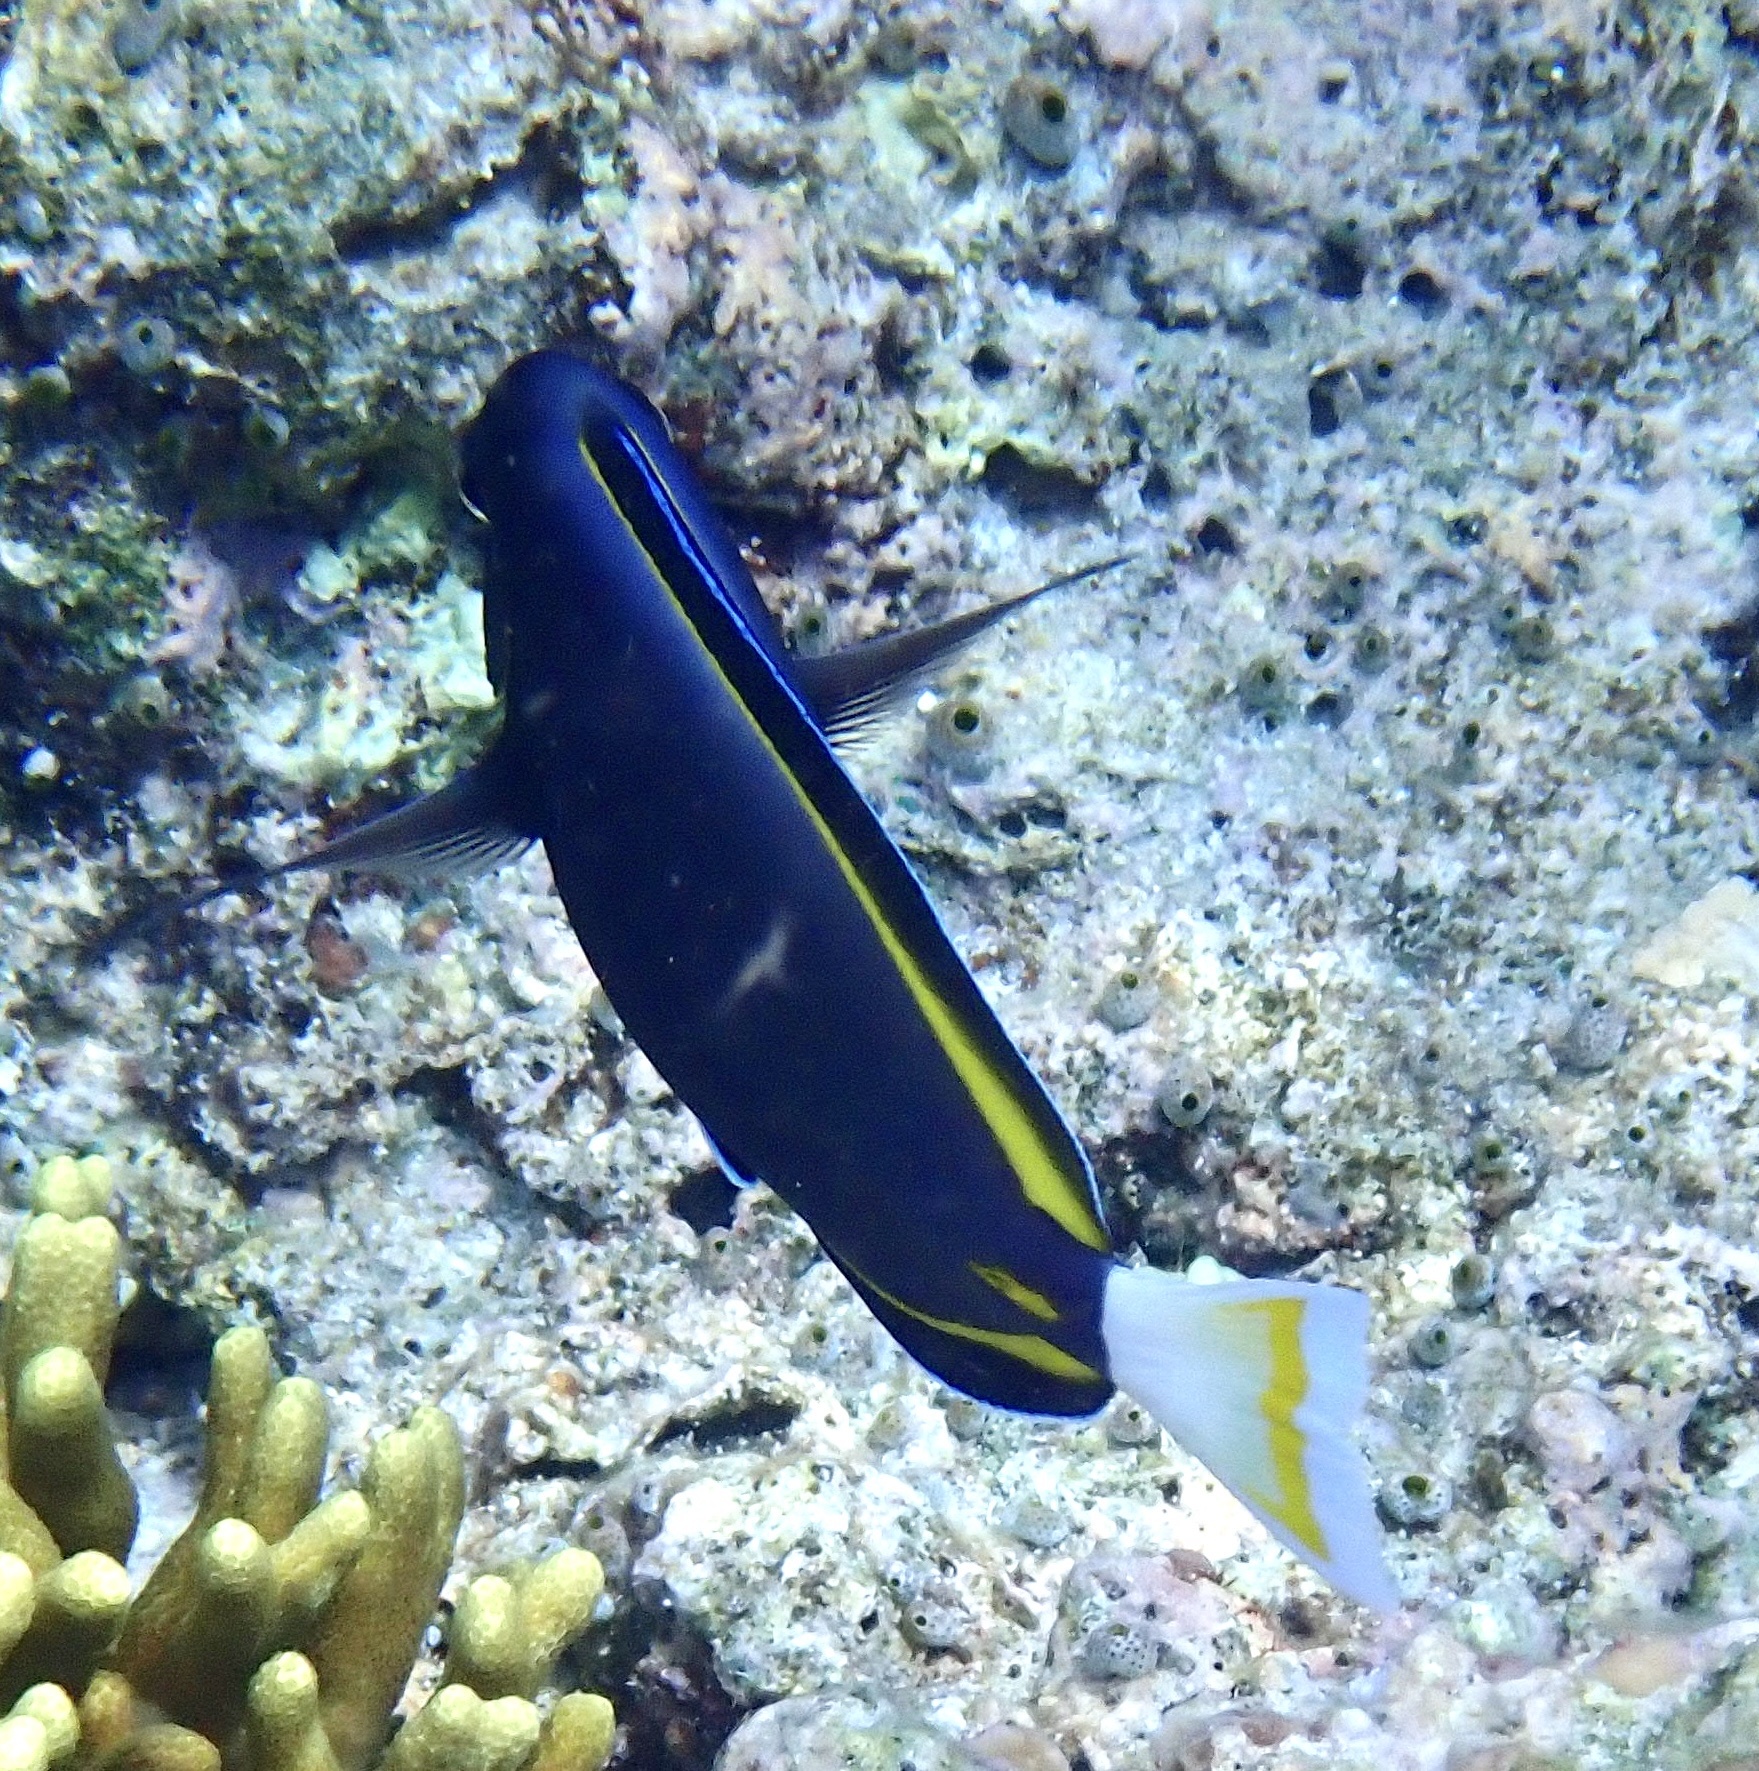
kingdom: Animalia
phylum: Chordata
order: Perciformes
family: Acanthuridae
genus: Acanthurus
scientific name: Acanthurus nigricans
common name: Whitecheek surgeonfish
